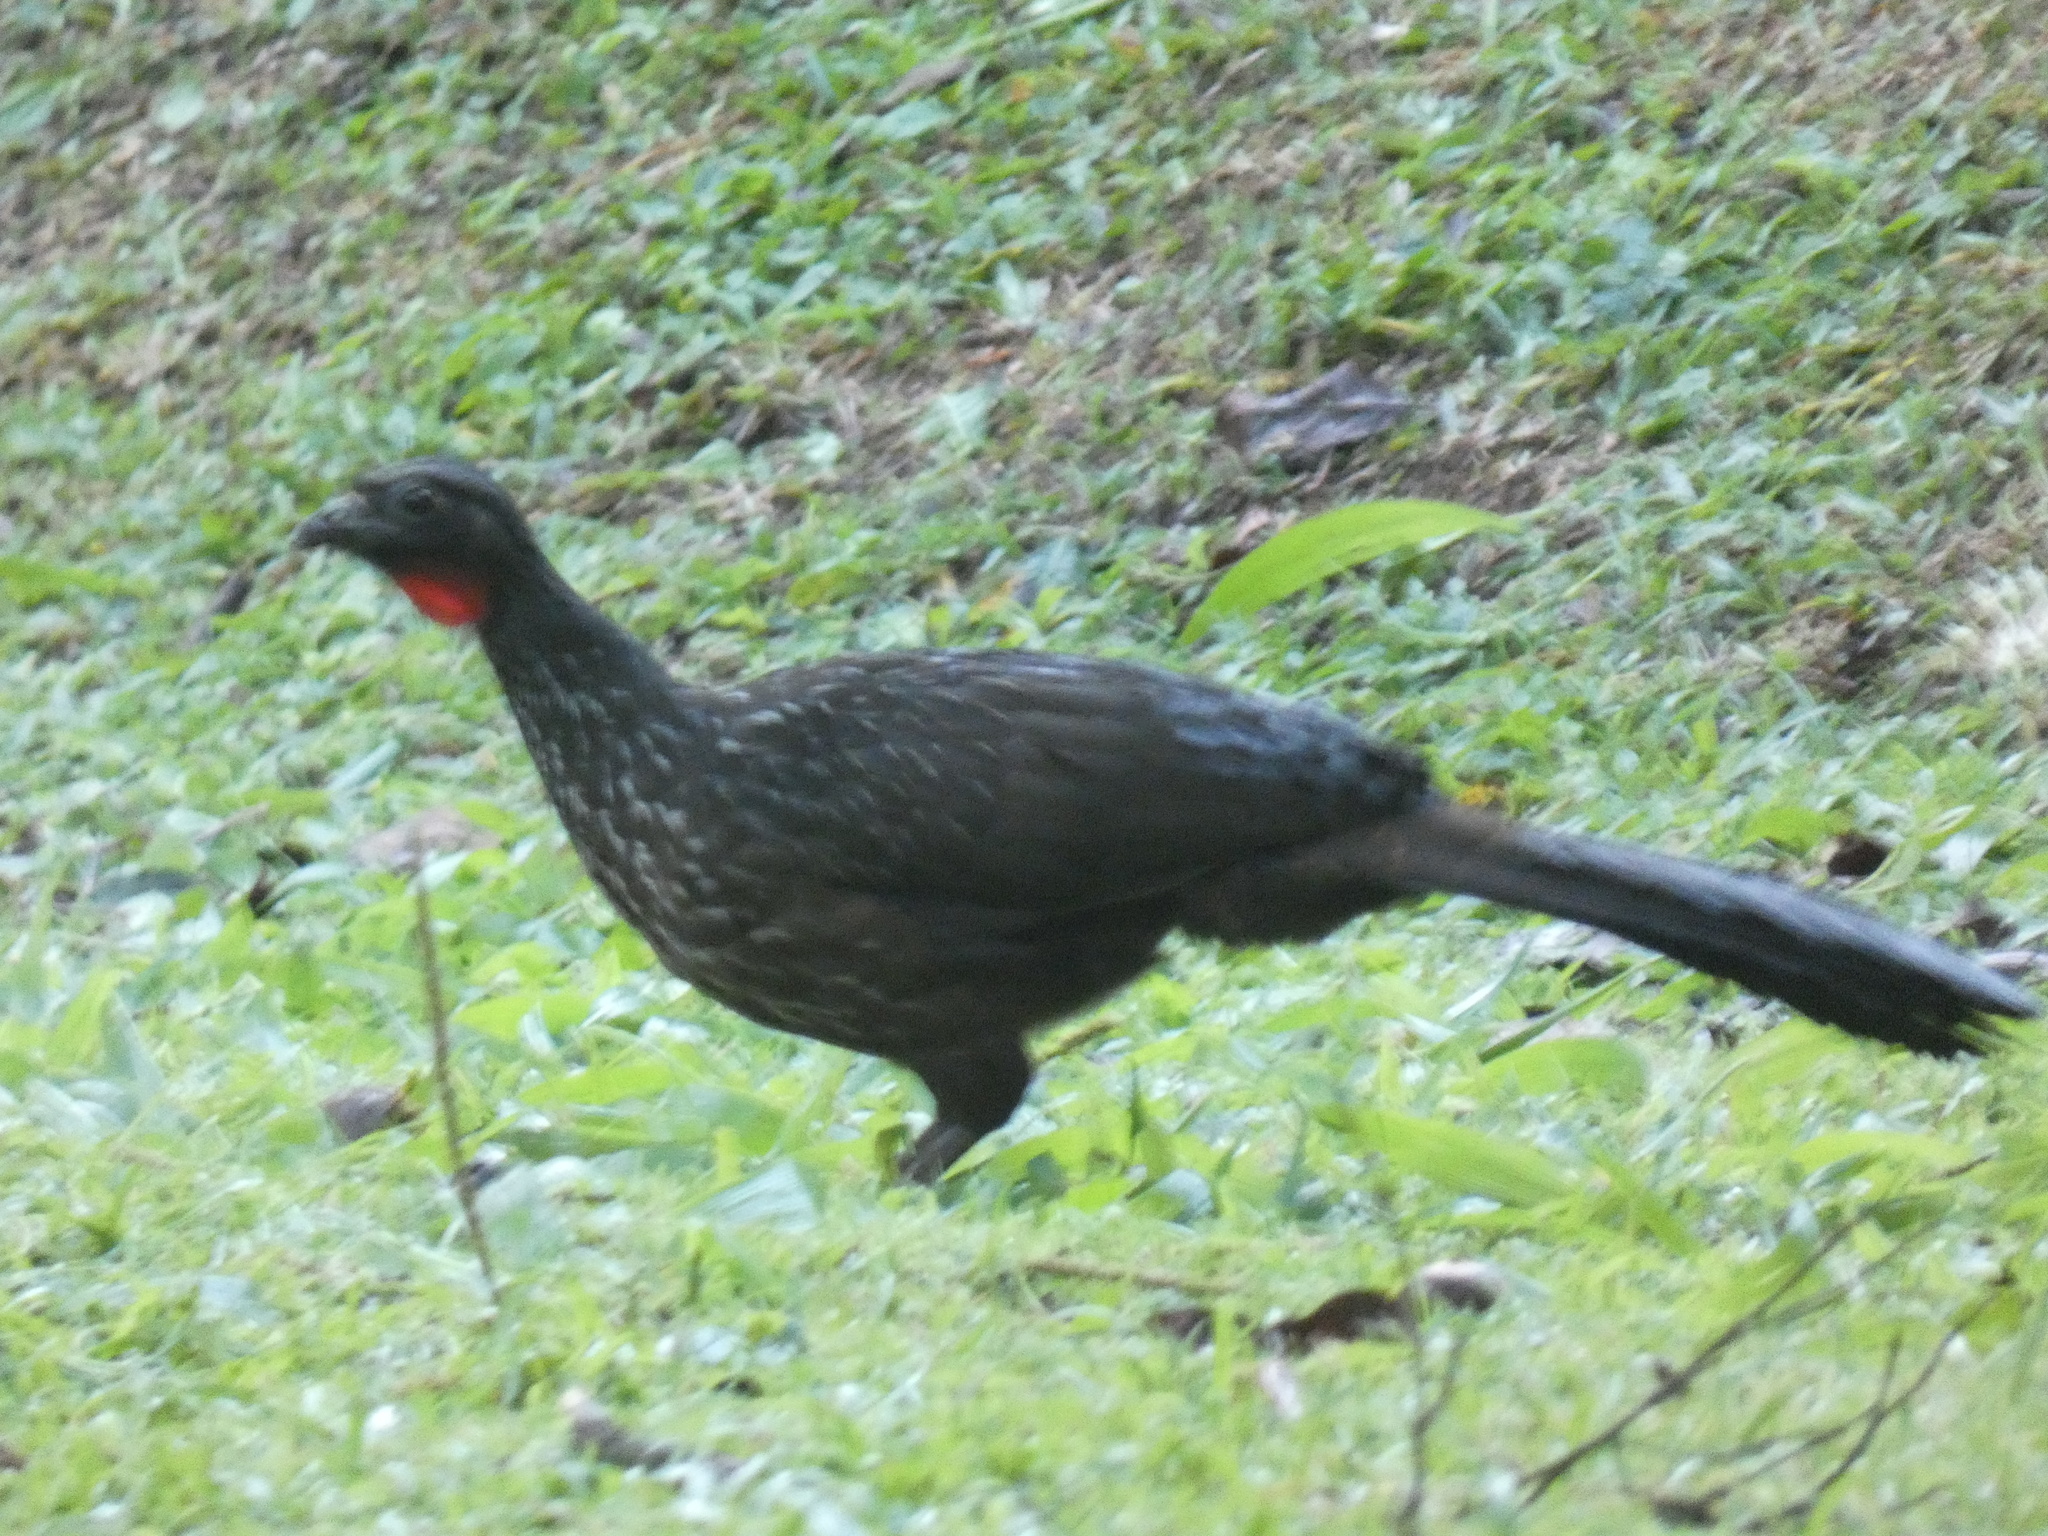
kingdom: Animalia
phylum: Chordata
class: Aves
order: Galliformes
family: Cracidae
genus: Penelope
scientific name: Penelope obscura
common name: Dusky-legged guan
